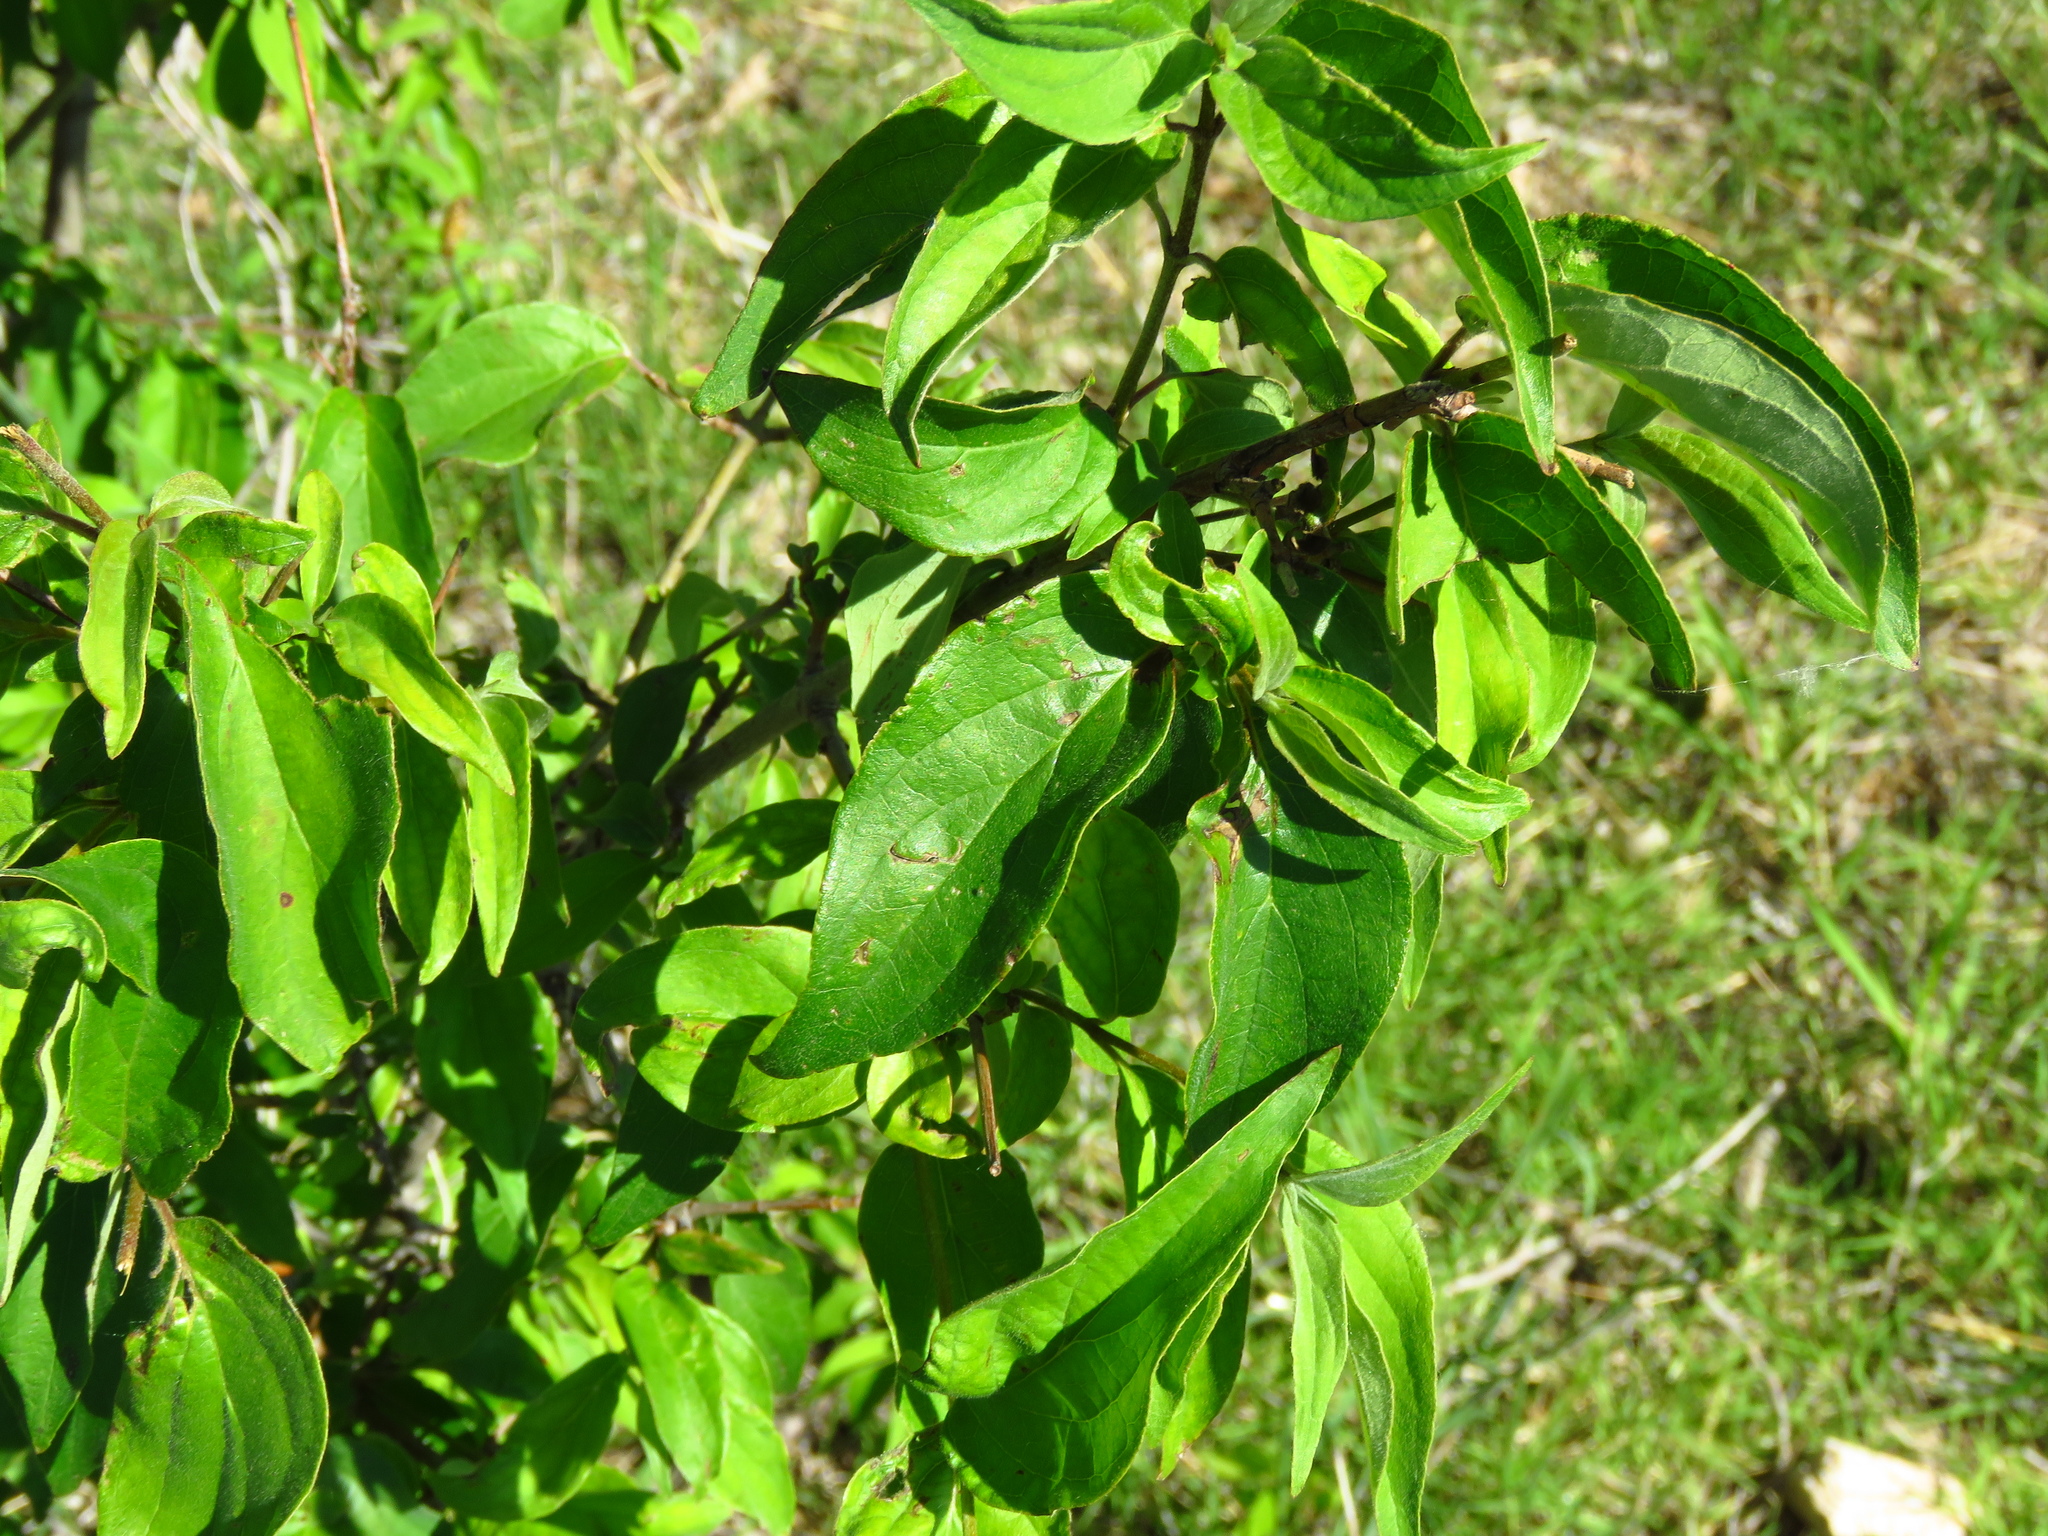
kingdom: Plantae
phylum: Tracheophyta
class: Magnoliopsida
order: Cornales
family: Cornaceae
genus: Cornus
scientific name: Cornus drummondii
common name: Rough-leaf dogwood
